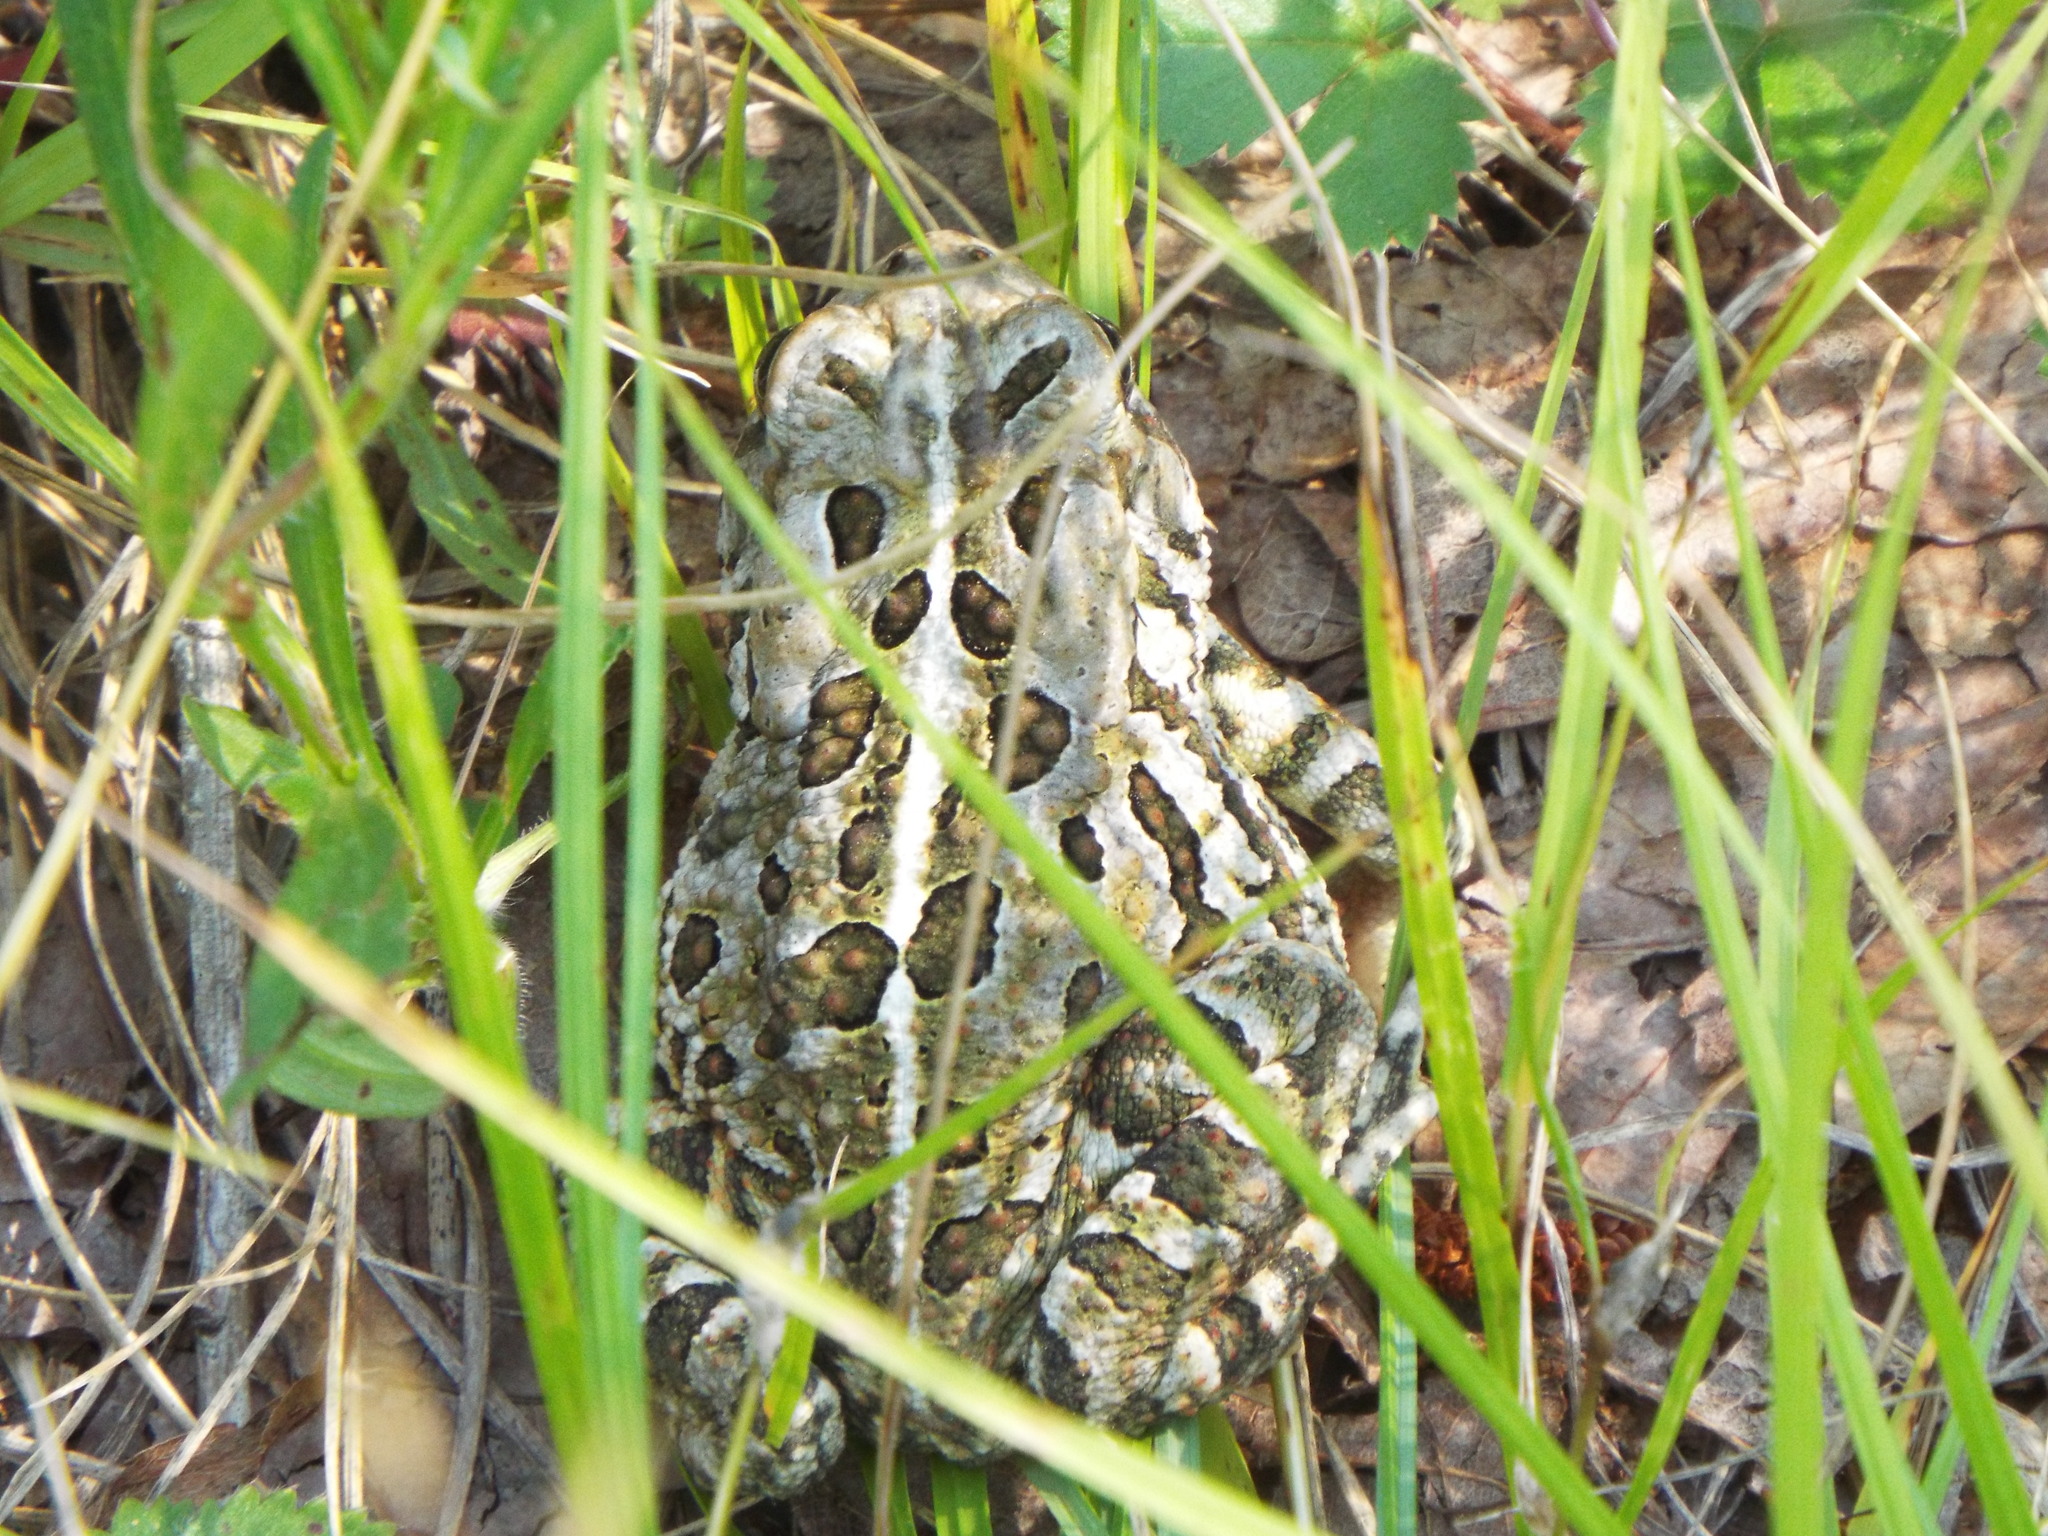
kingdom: Animalia
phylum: Chordata
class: Amphibia
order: Anura
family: Bufonidae
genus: Anaxyrus
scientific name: Anaxyrus fowleri
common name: Fowler's toad
